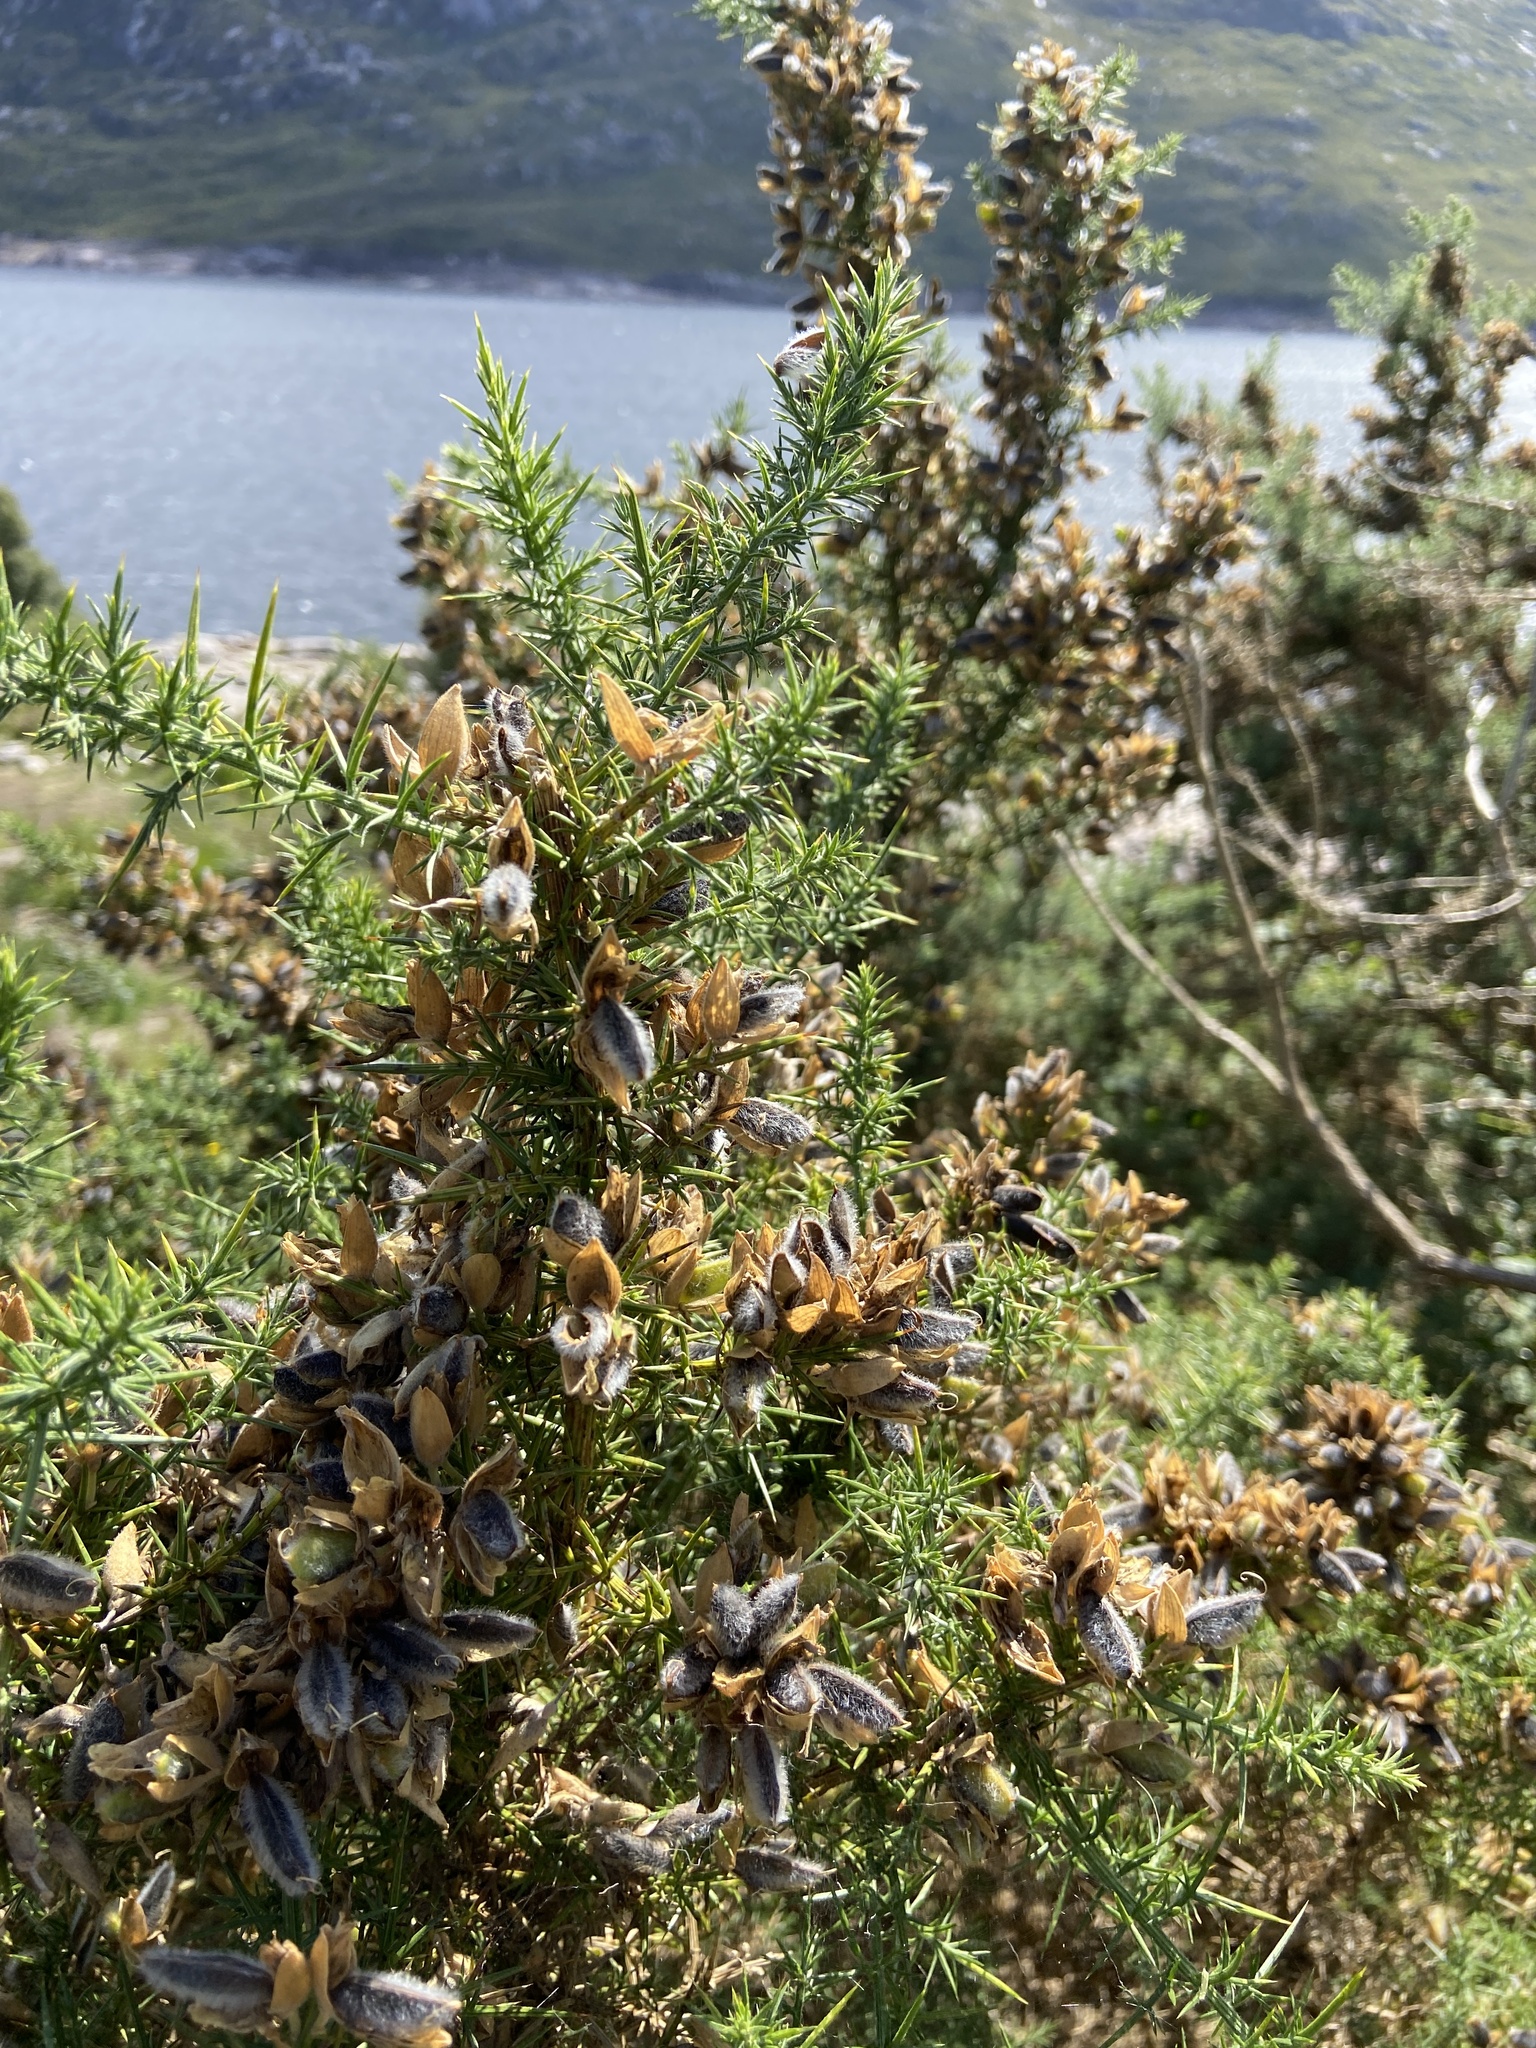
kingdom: Plantae
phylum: Tracheophyta
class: Magnoliopsida
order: Fabales
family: Fabaceae
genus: Ulex
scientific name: Ulex europaeus
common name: Common gorse
